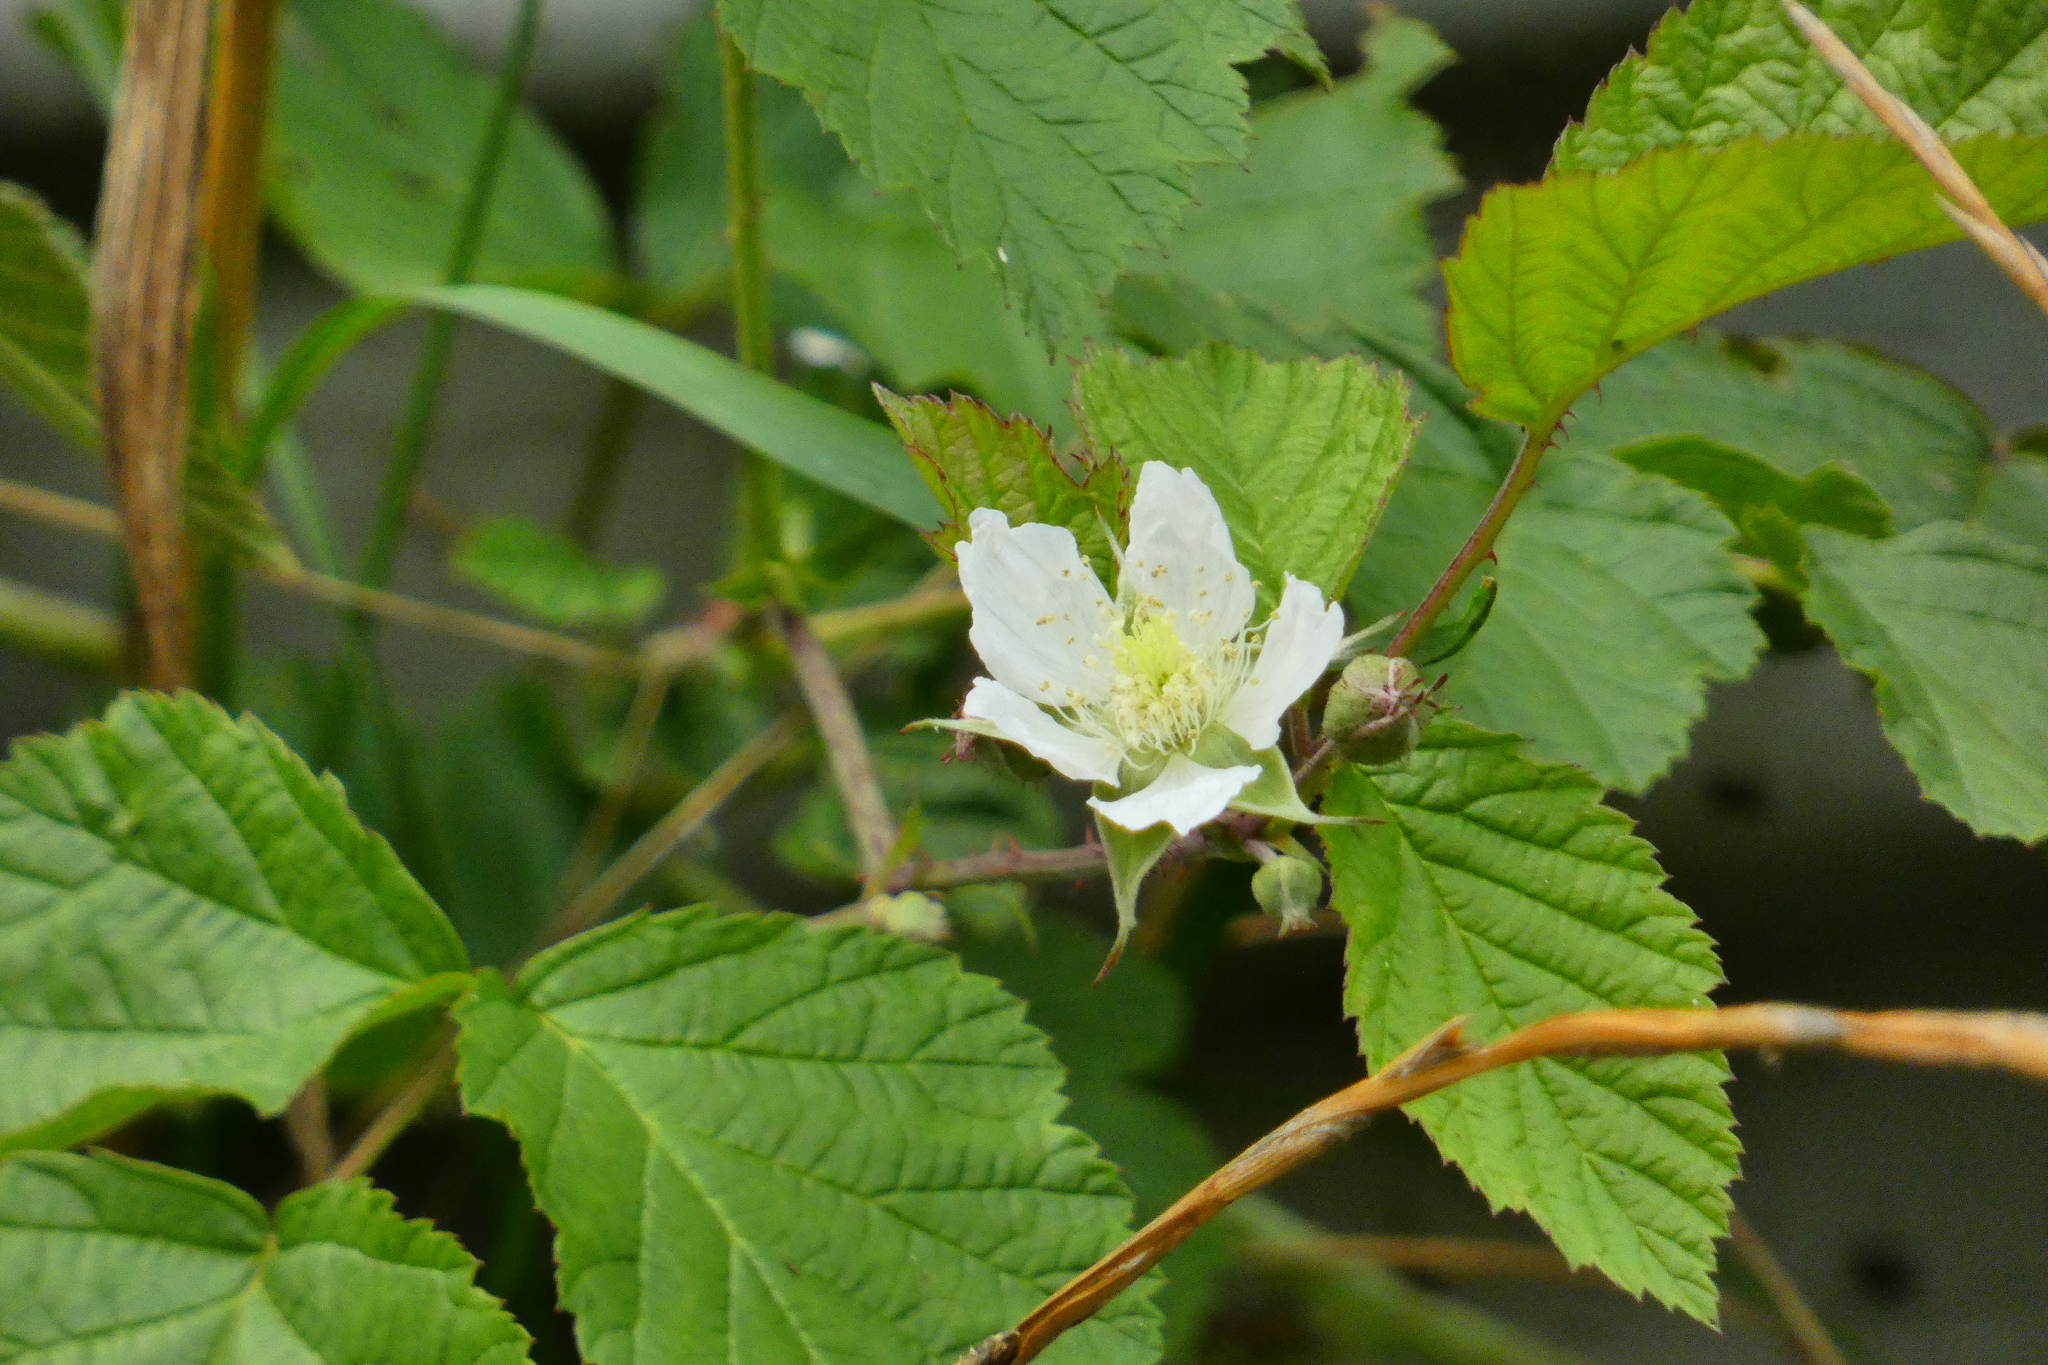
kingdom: Plantae
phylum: Tracheophyta
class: Magnoliopsida
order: Rosales
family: Rosaceae
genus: Rubus
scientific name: Rubus caesius
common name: Dewberry
